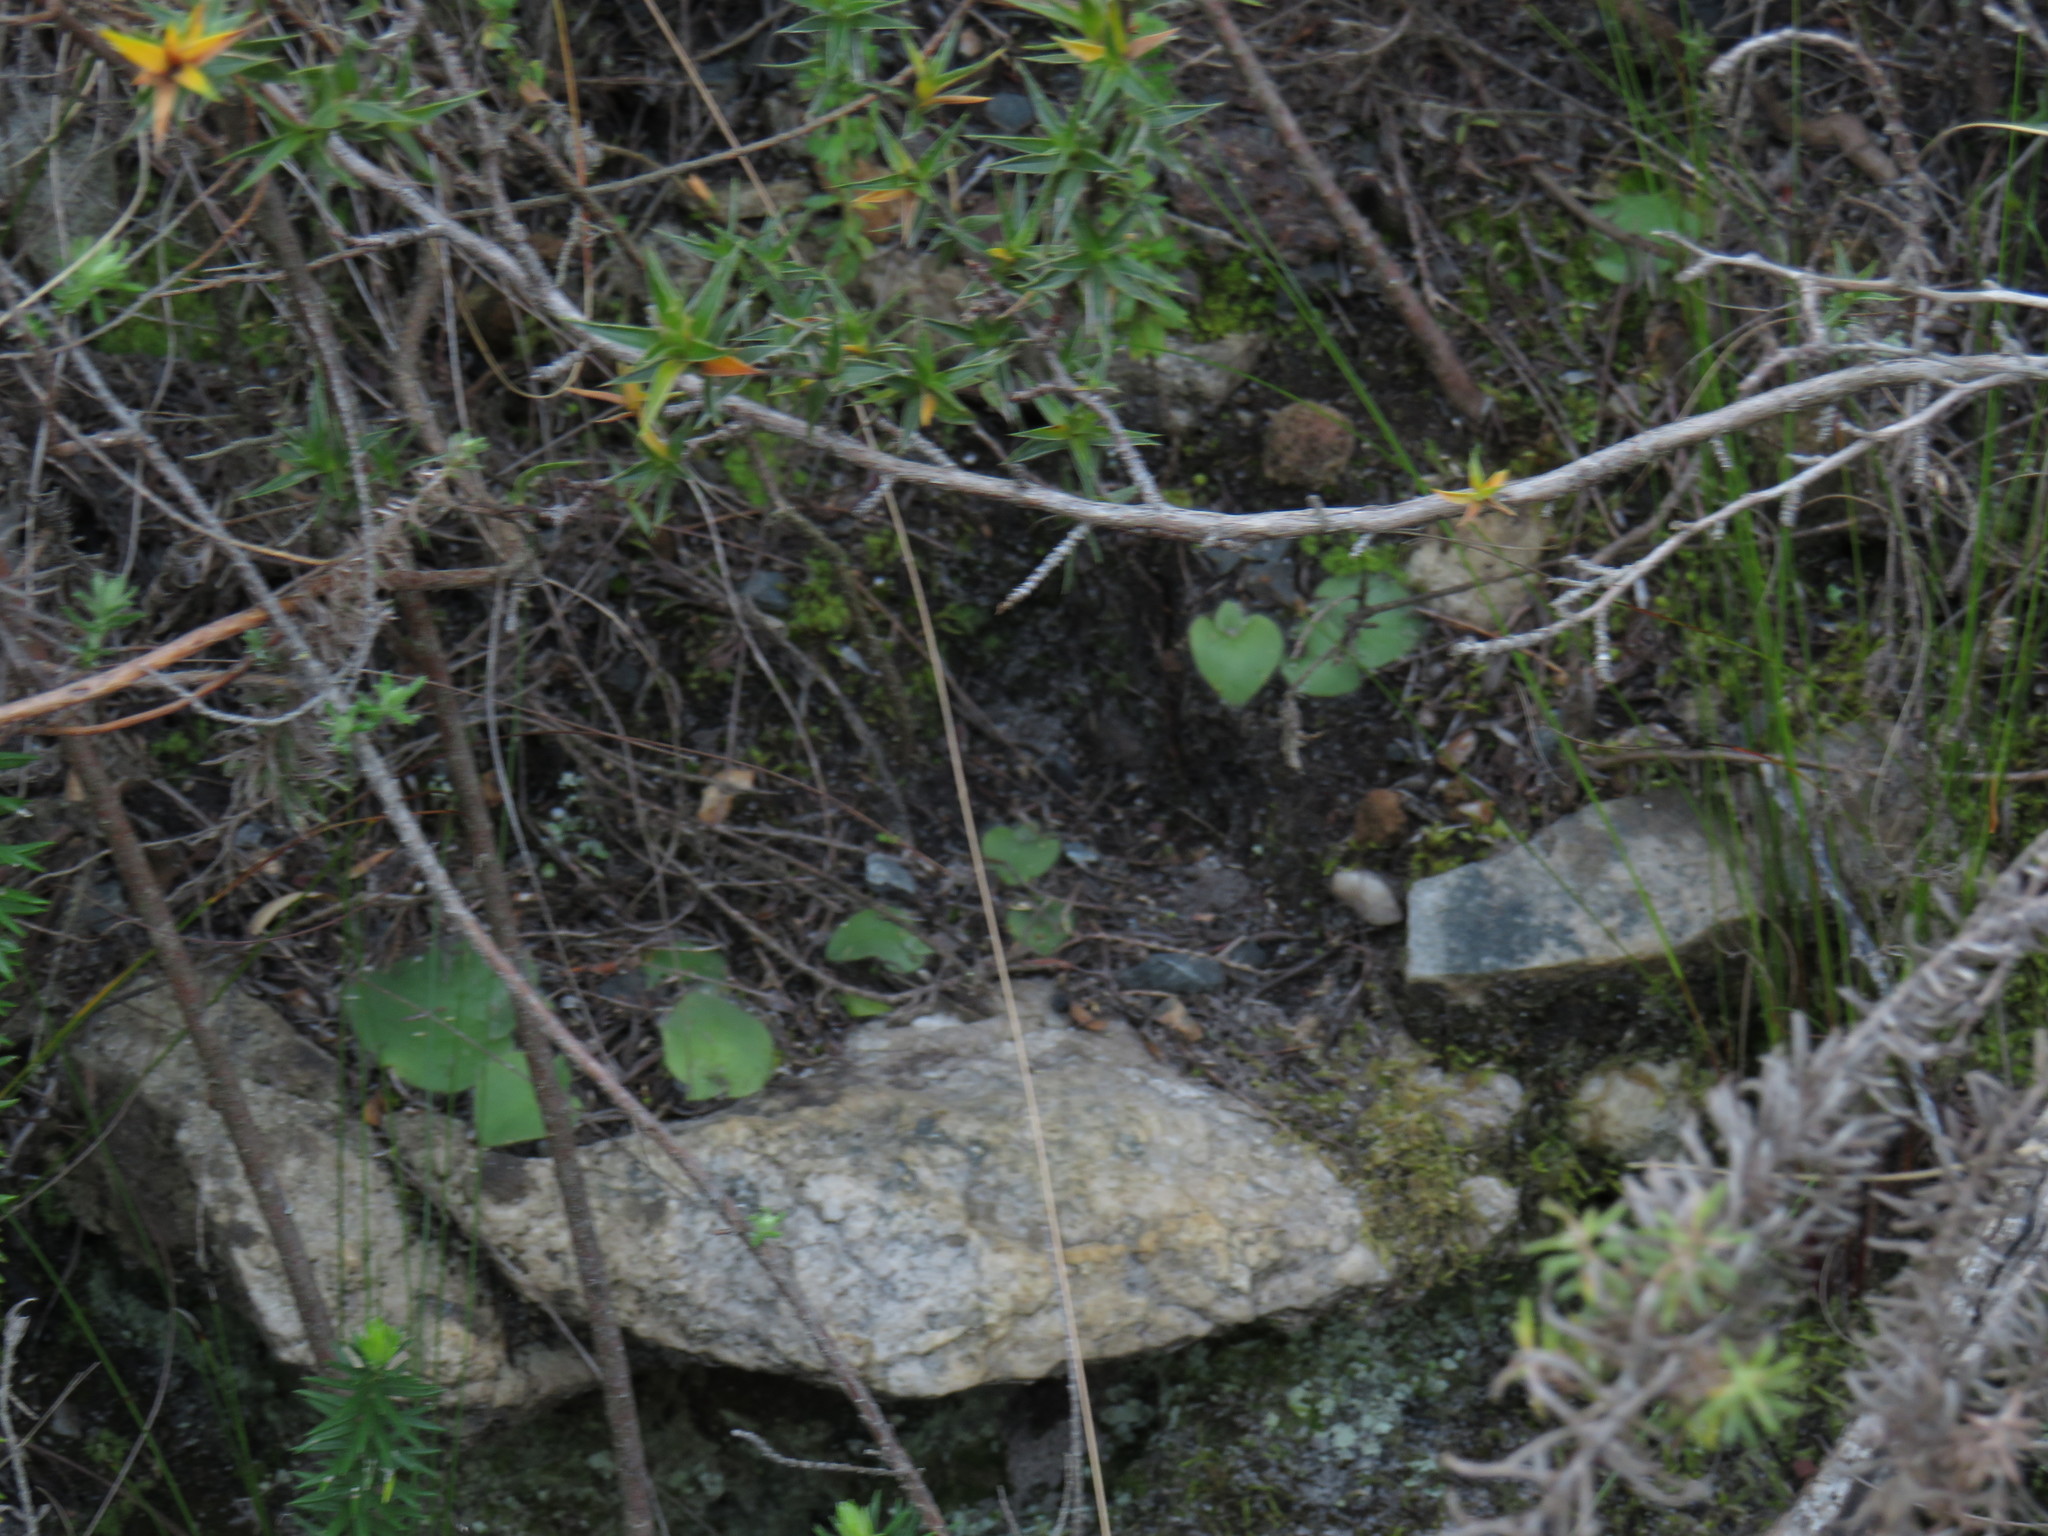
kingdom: Plantae
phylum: Tracheophyta
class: Liliopsida
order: Asparagales
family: Orchidaceae
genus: Holothrix
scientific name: Holothrix villosa
